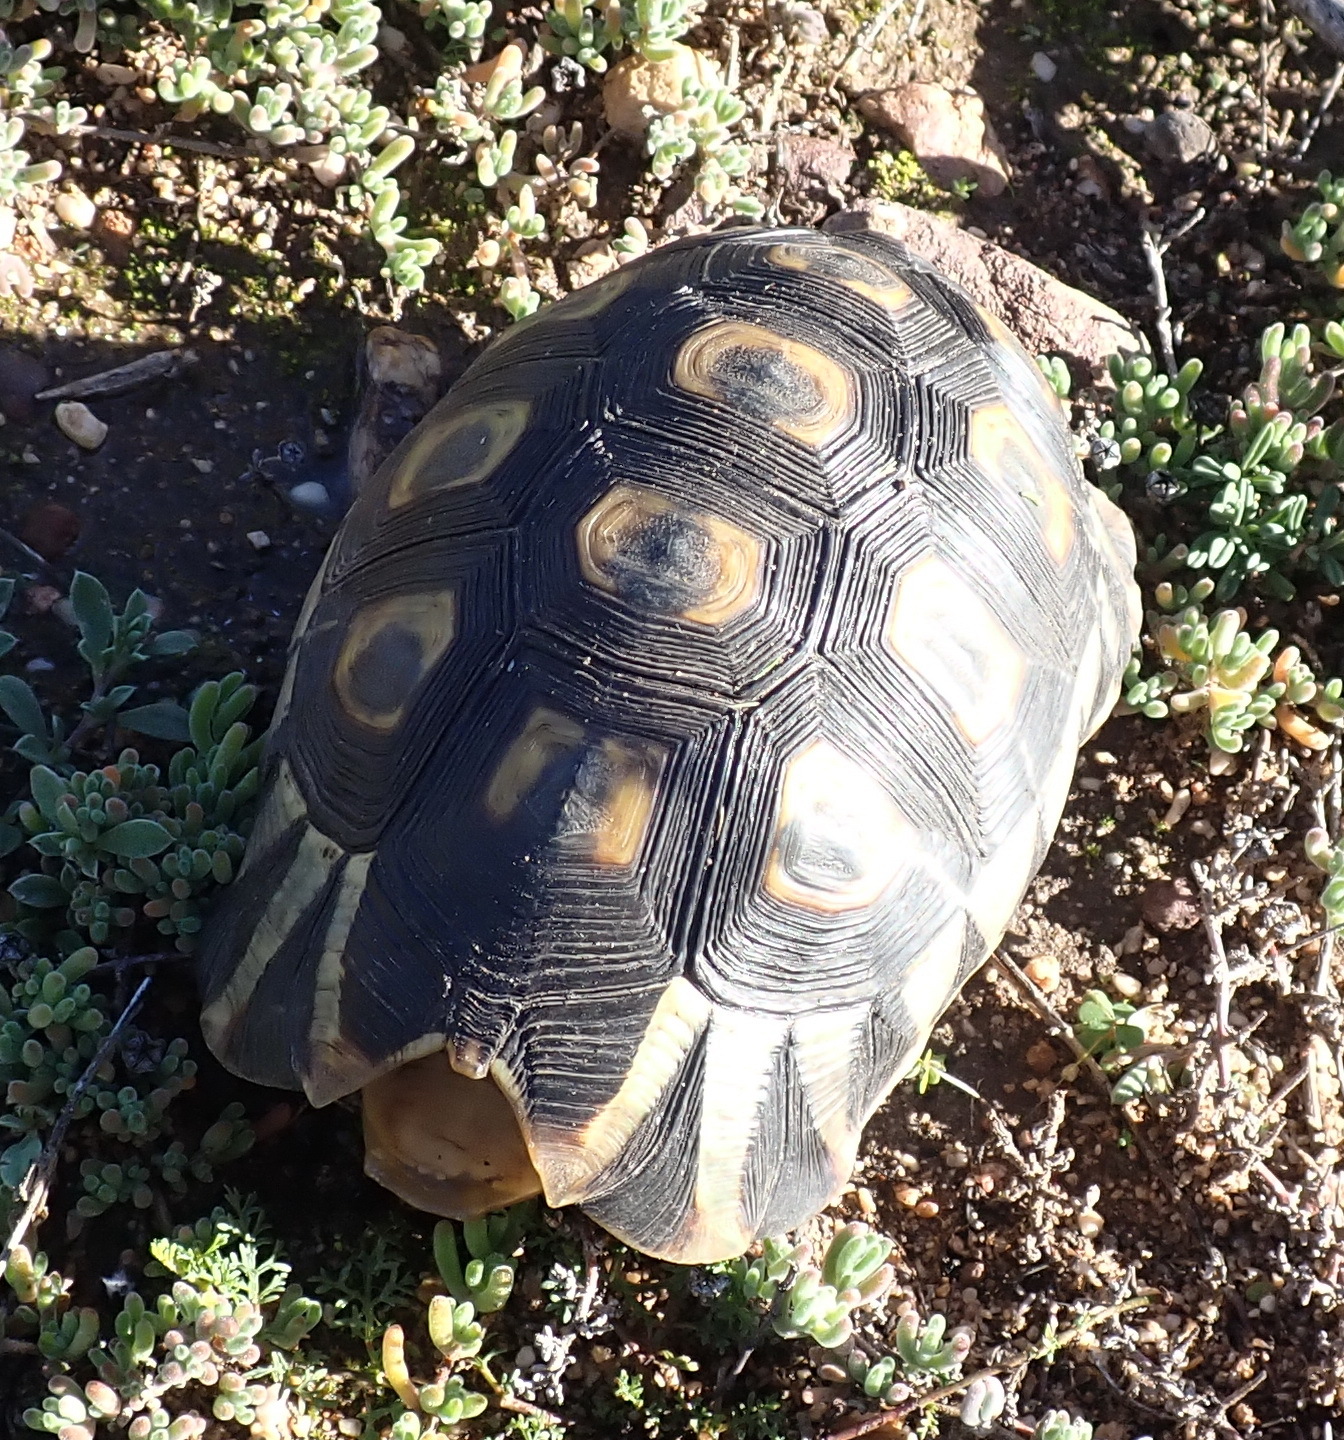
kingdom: Animalia
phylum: Chordata
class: Testudines
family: Testudinidae
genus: Chersina
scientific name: Chersina angulata
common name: South african bowsprit tortoise
